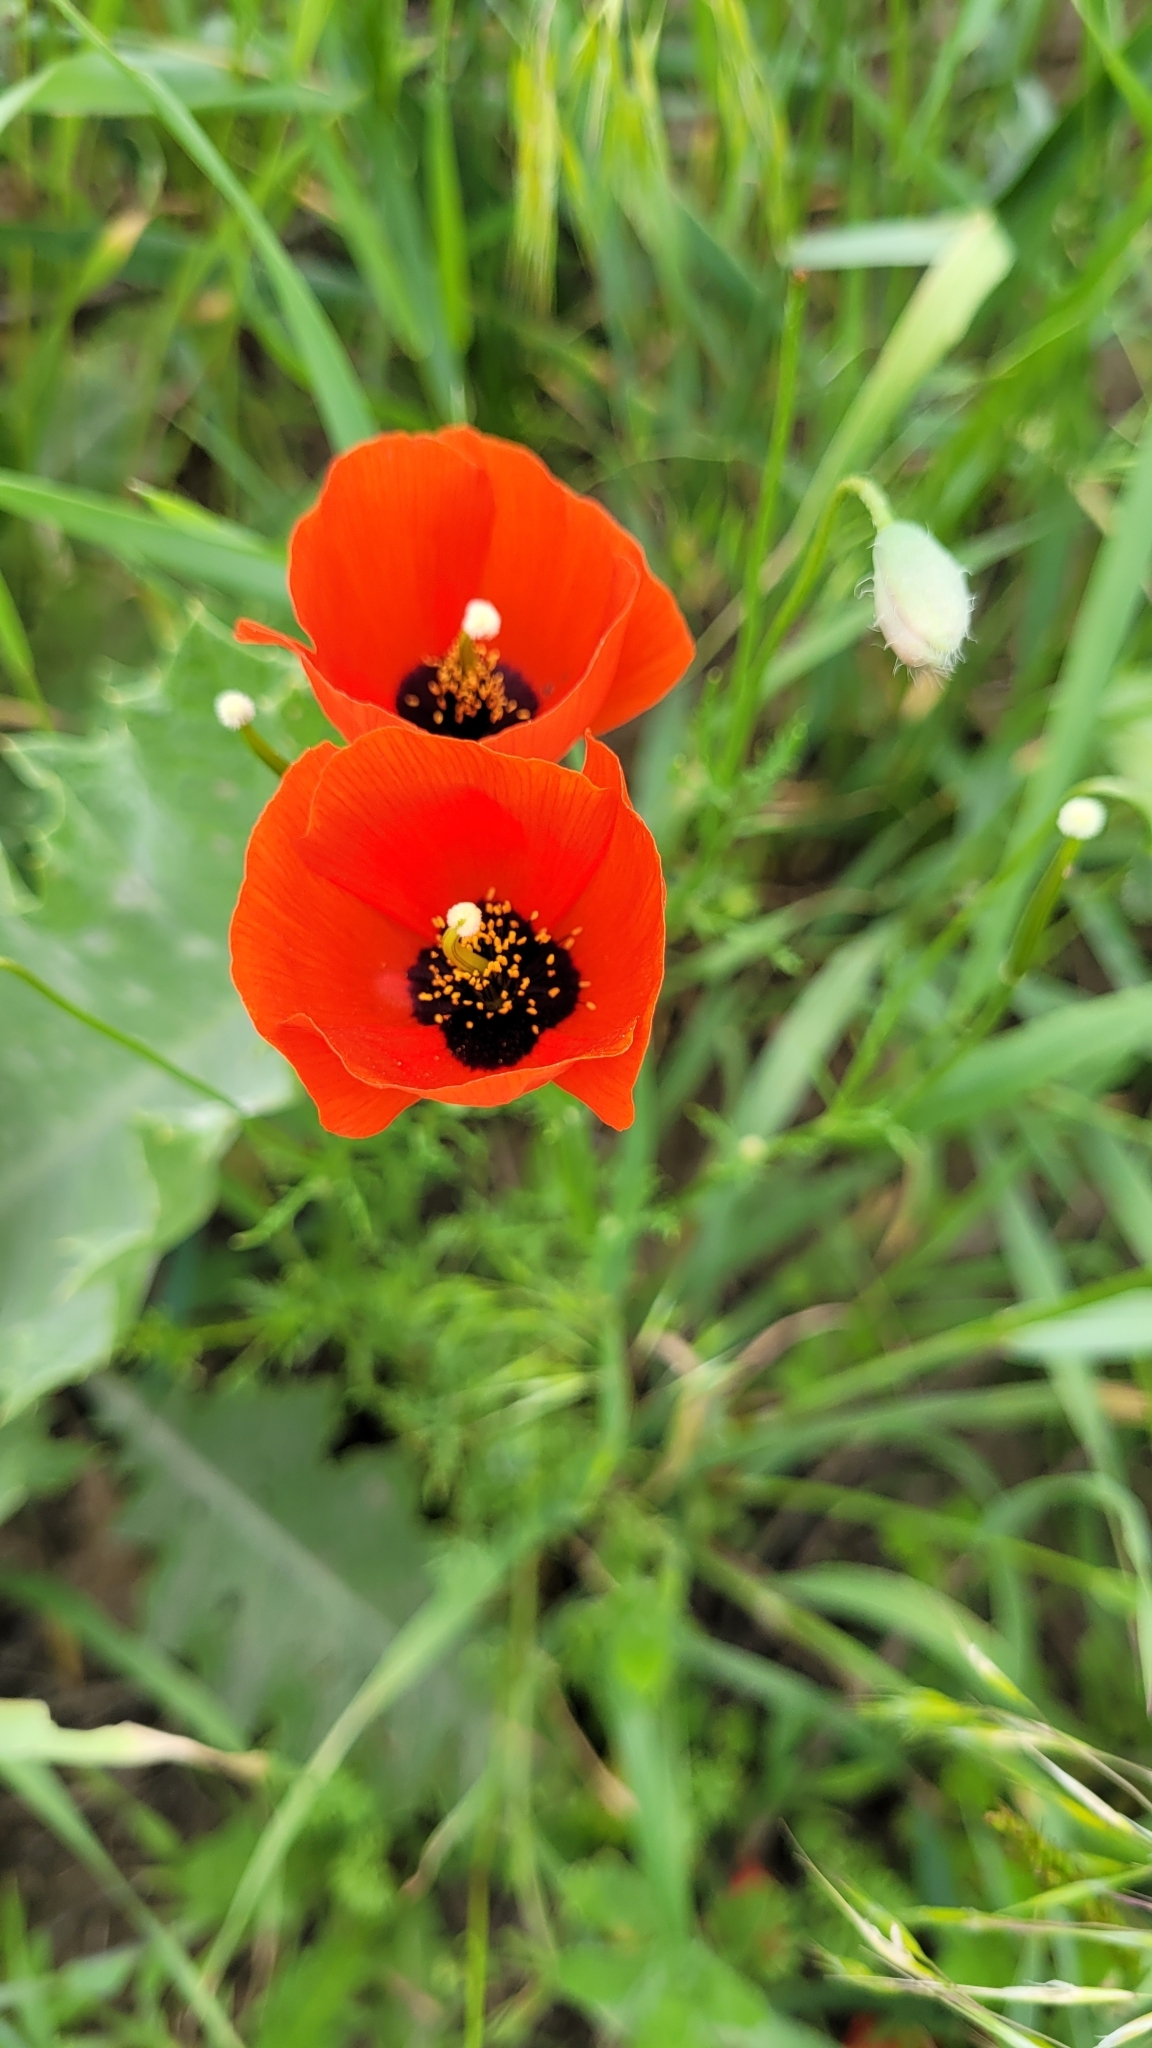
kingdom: Plantae
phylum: Tracheophyta
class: Magnoliopsida
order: Ranunculales
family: Papaveraceae
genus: Roemeria
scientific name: Roemeria refracta
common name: Spotted asian poppy
